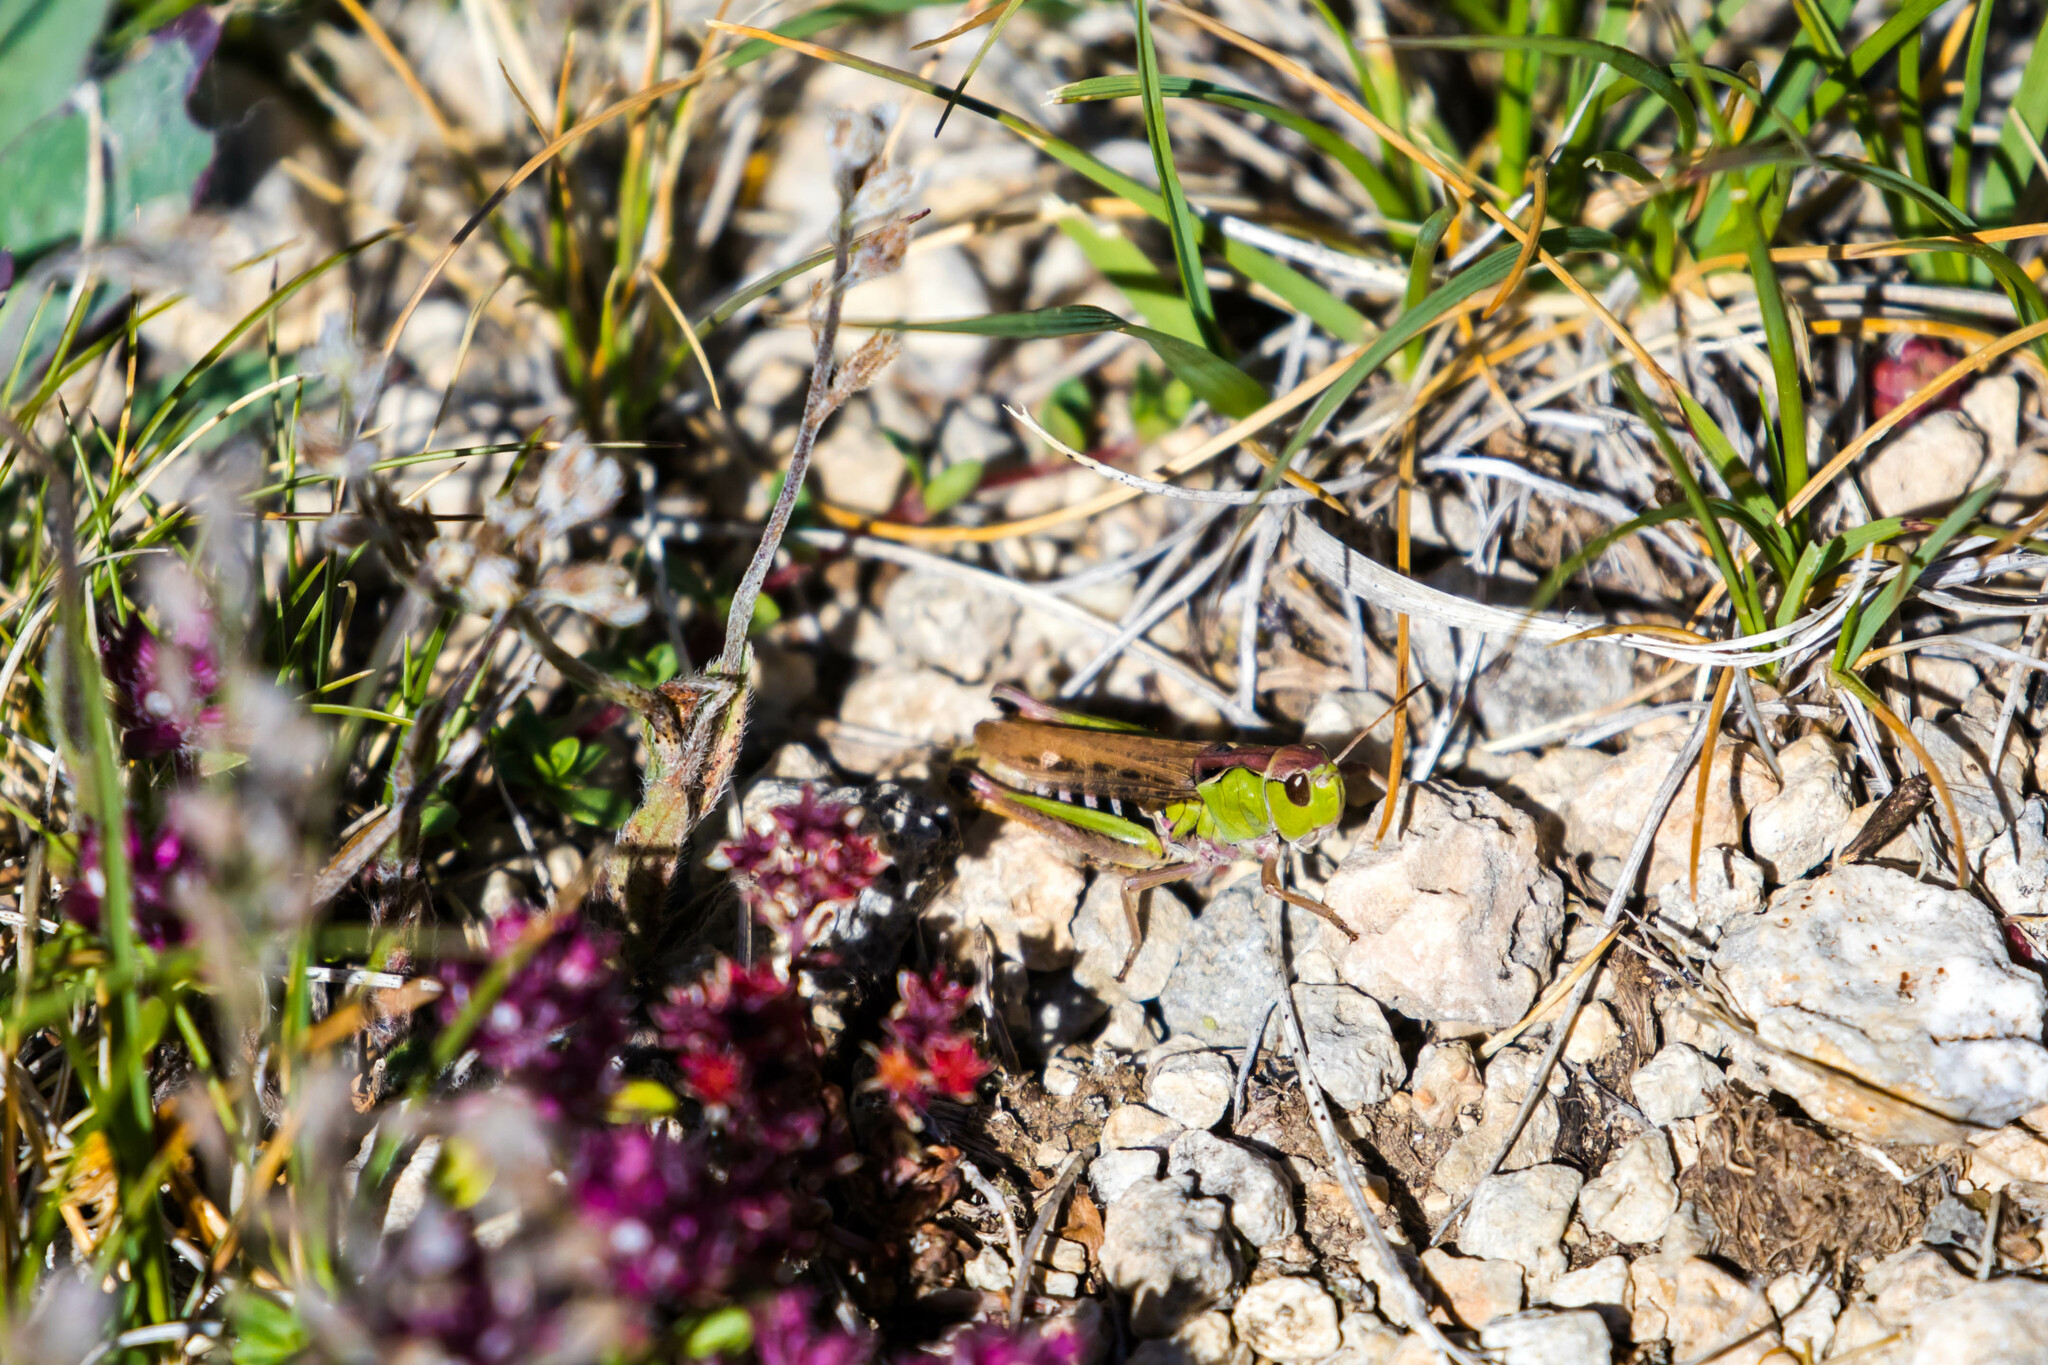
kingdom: Animalia
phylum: Arthropoda
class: Insecta
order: Orthoptera
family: Acrididae
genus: Gomphocerus
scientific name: Gomphocerus sibiricus
